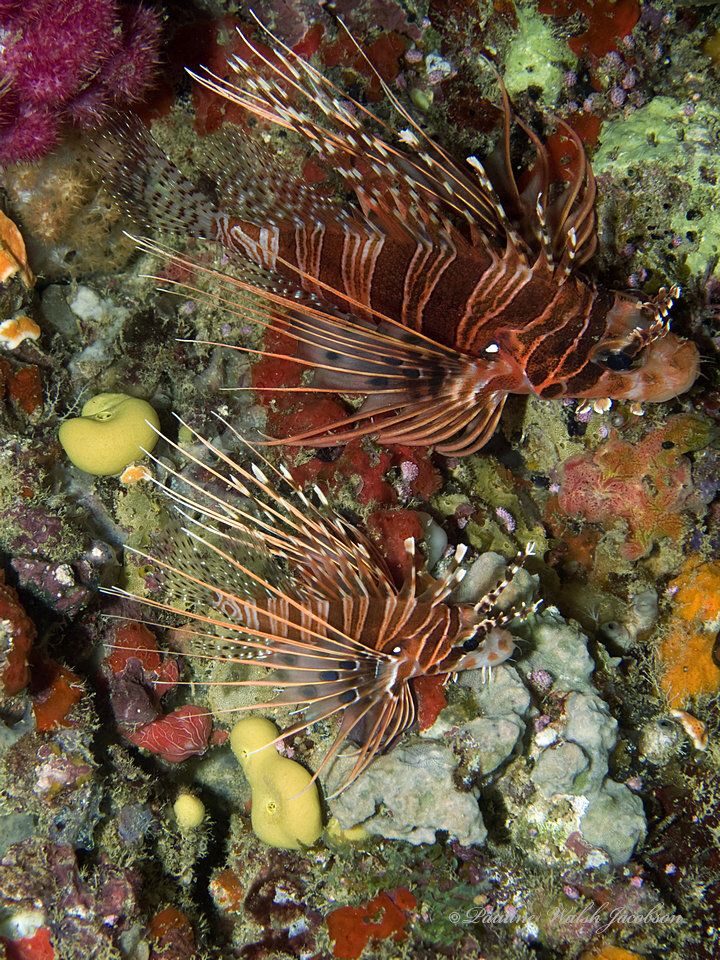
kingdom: Animalia
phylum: Chordata
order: Scorpaeniformes
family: Scorpaenidae
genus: Pterois
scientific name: Pterois antennata
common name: Spotfin lionfish
